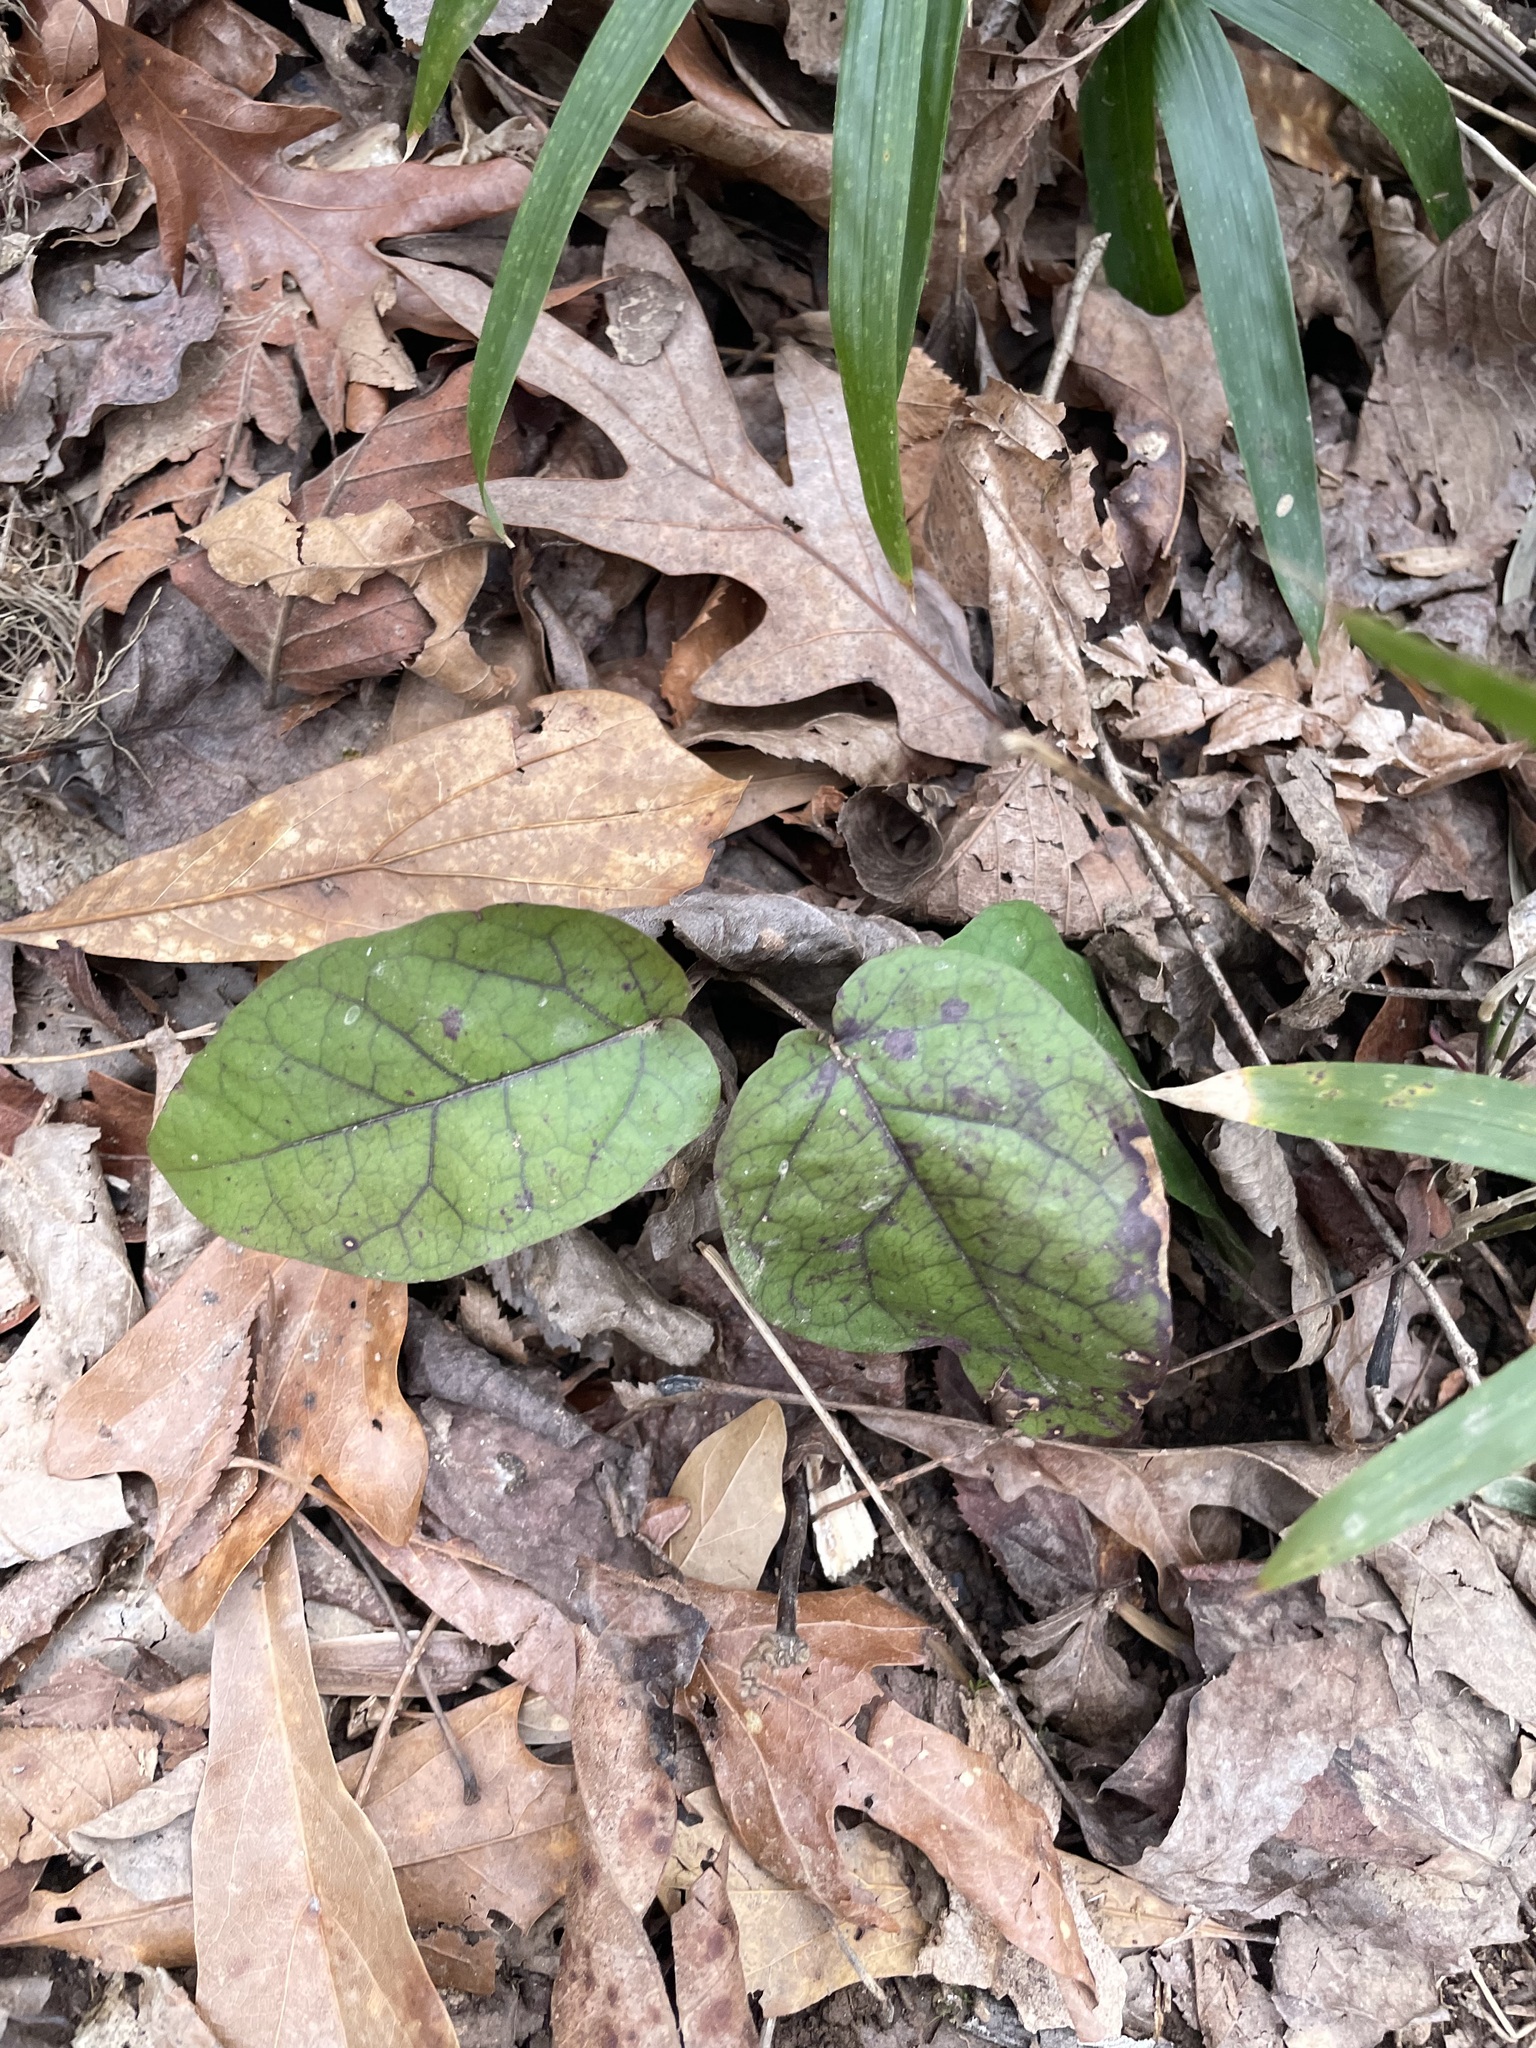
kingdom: Plantae
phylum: Tracheophyta
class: Magnoliopsida
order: Lamiales
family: Bignoniaceae
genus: Bignonia
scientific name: Bignonia capreolata
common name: Crossvine
